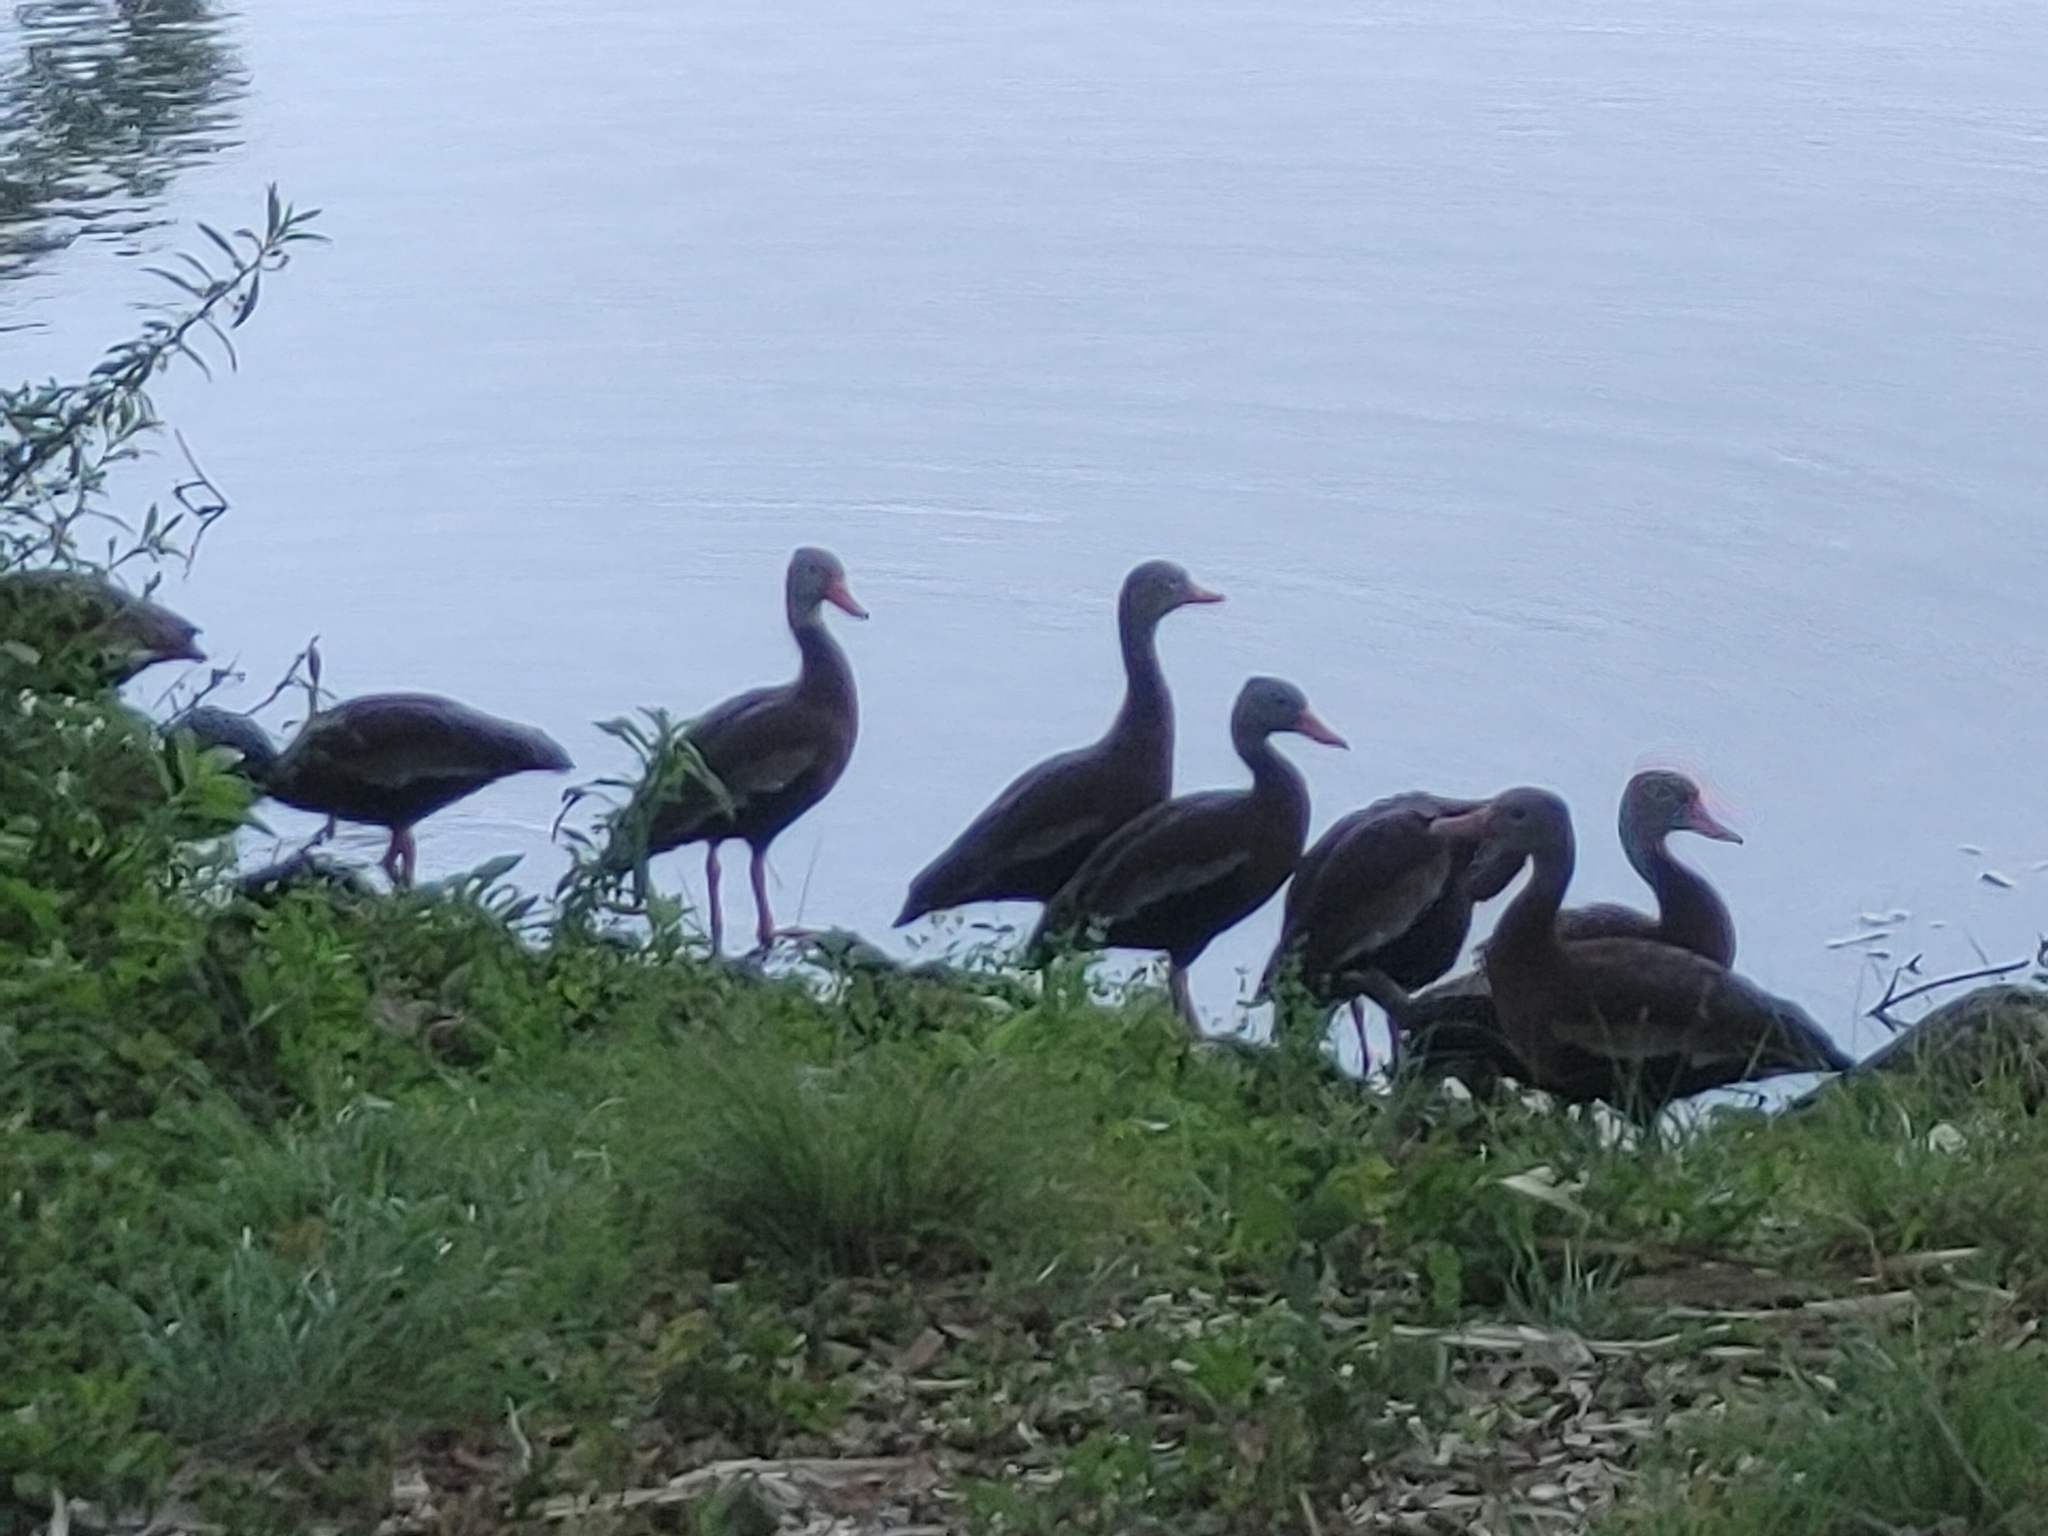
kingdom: Animalia
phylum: Chordata
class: Aves
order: Anseriformes
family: Anatidae
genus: Dendrocygna
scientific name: Dendrocygna autumnalis
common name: Black-bellied whistling duck
